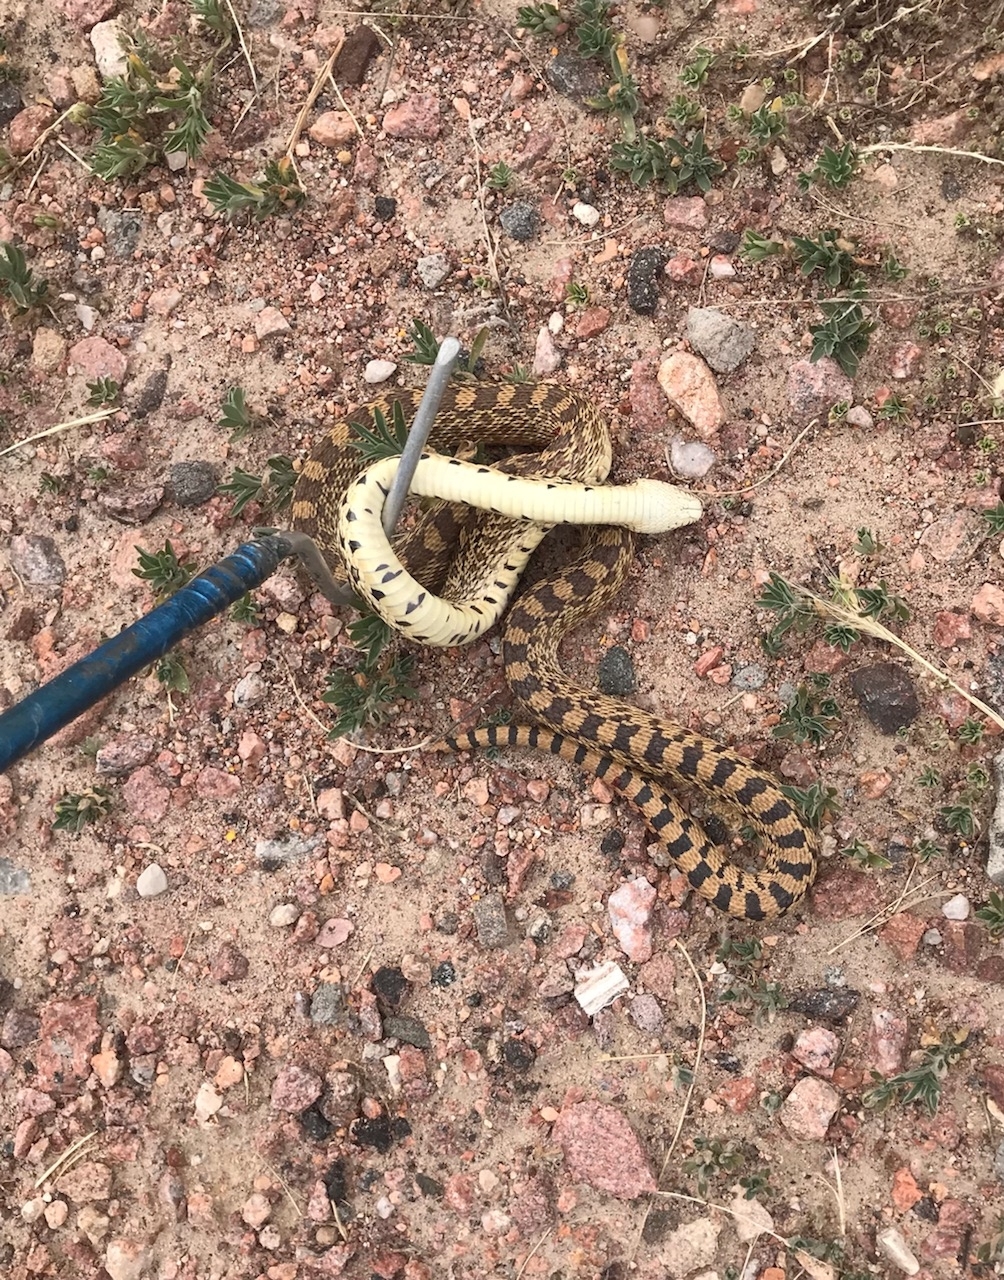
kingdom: Animalia
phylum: Chordata
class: Squamata
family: Colubridae
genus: Pituophis
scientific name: Pituophis catenifer
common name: Gopher snake
